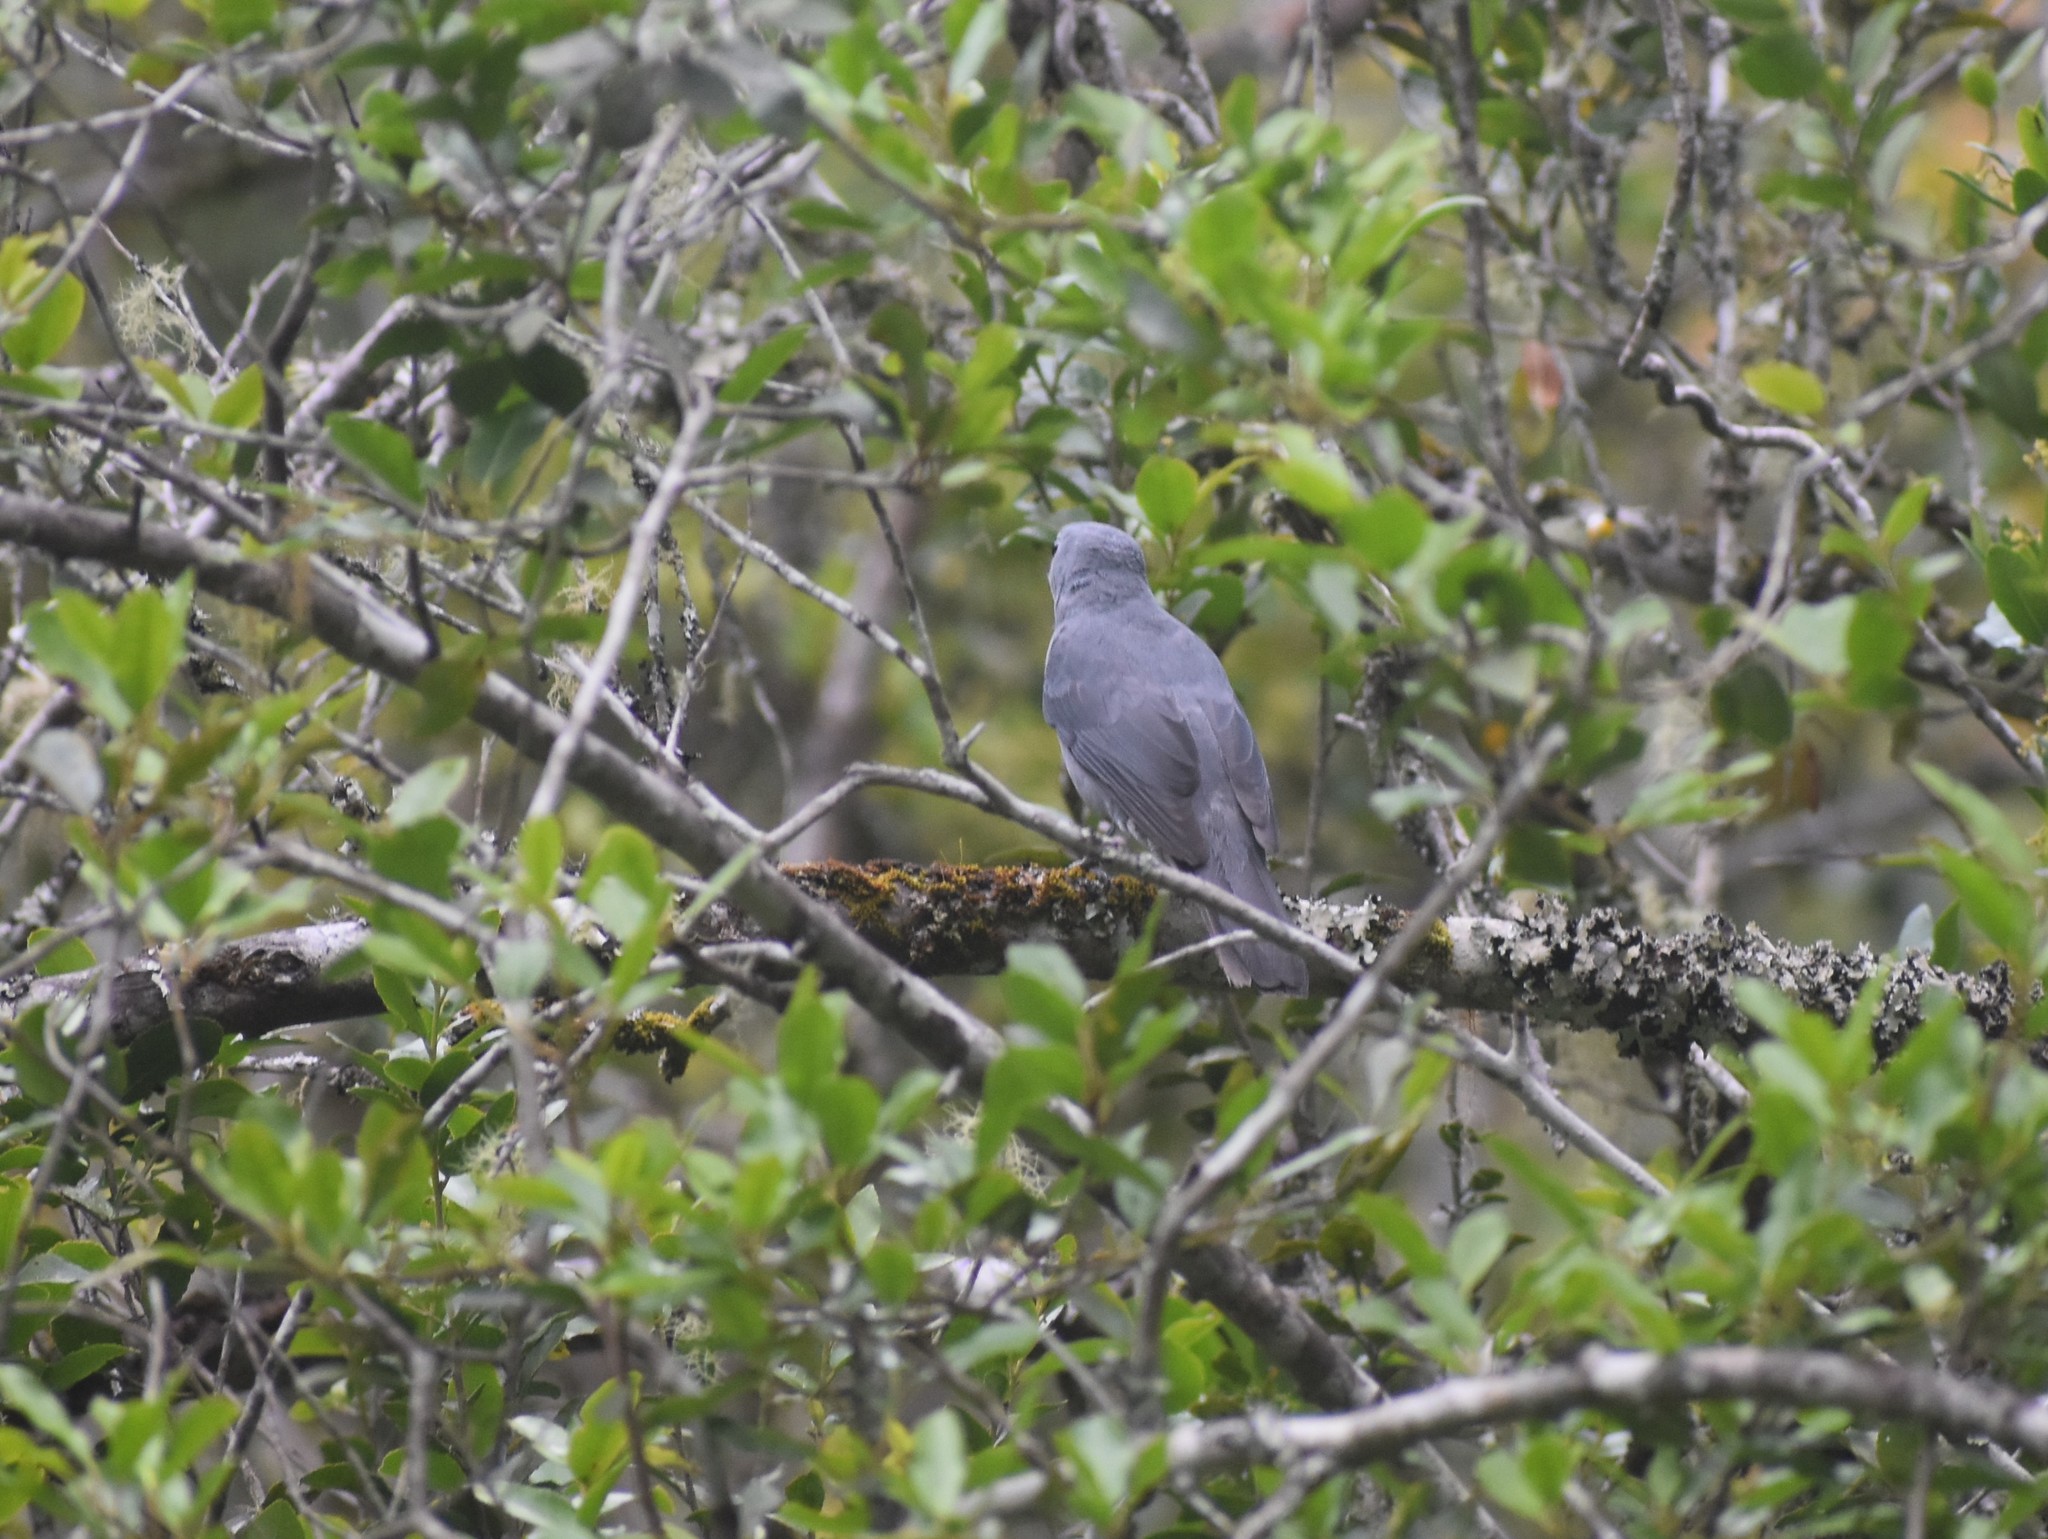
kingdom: Animalia
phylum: Chordata
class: Aves
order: Passeriformes
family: Campephagidae
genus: Coracina
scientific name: Coracina caesia
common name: Grey cuckooshrike
